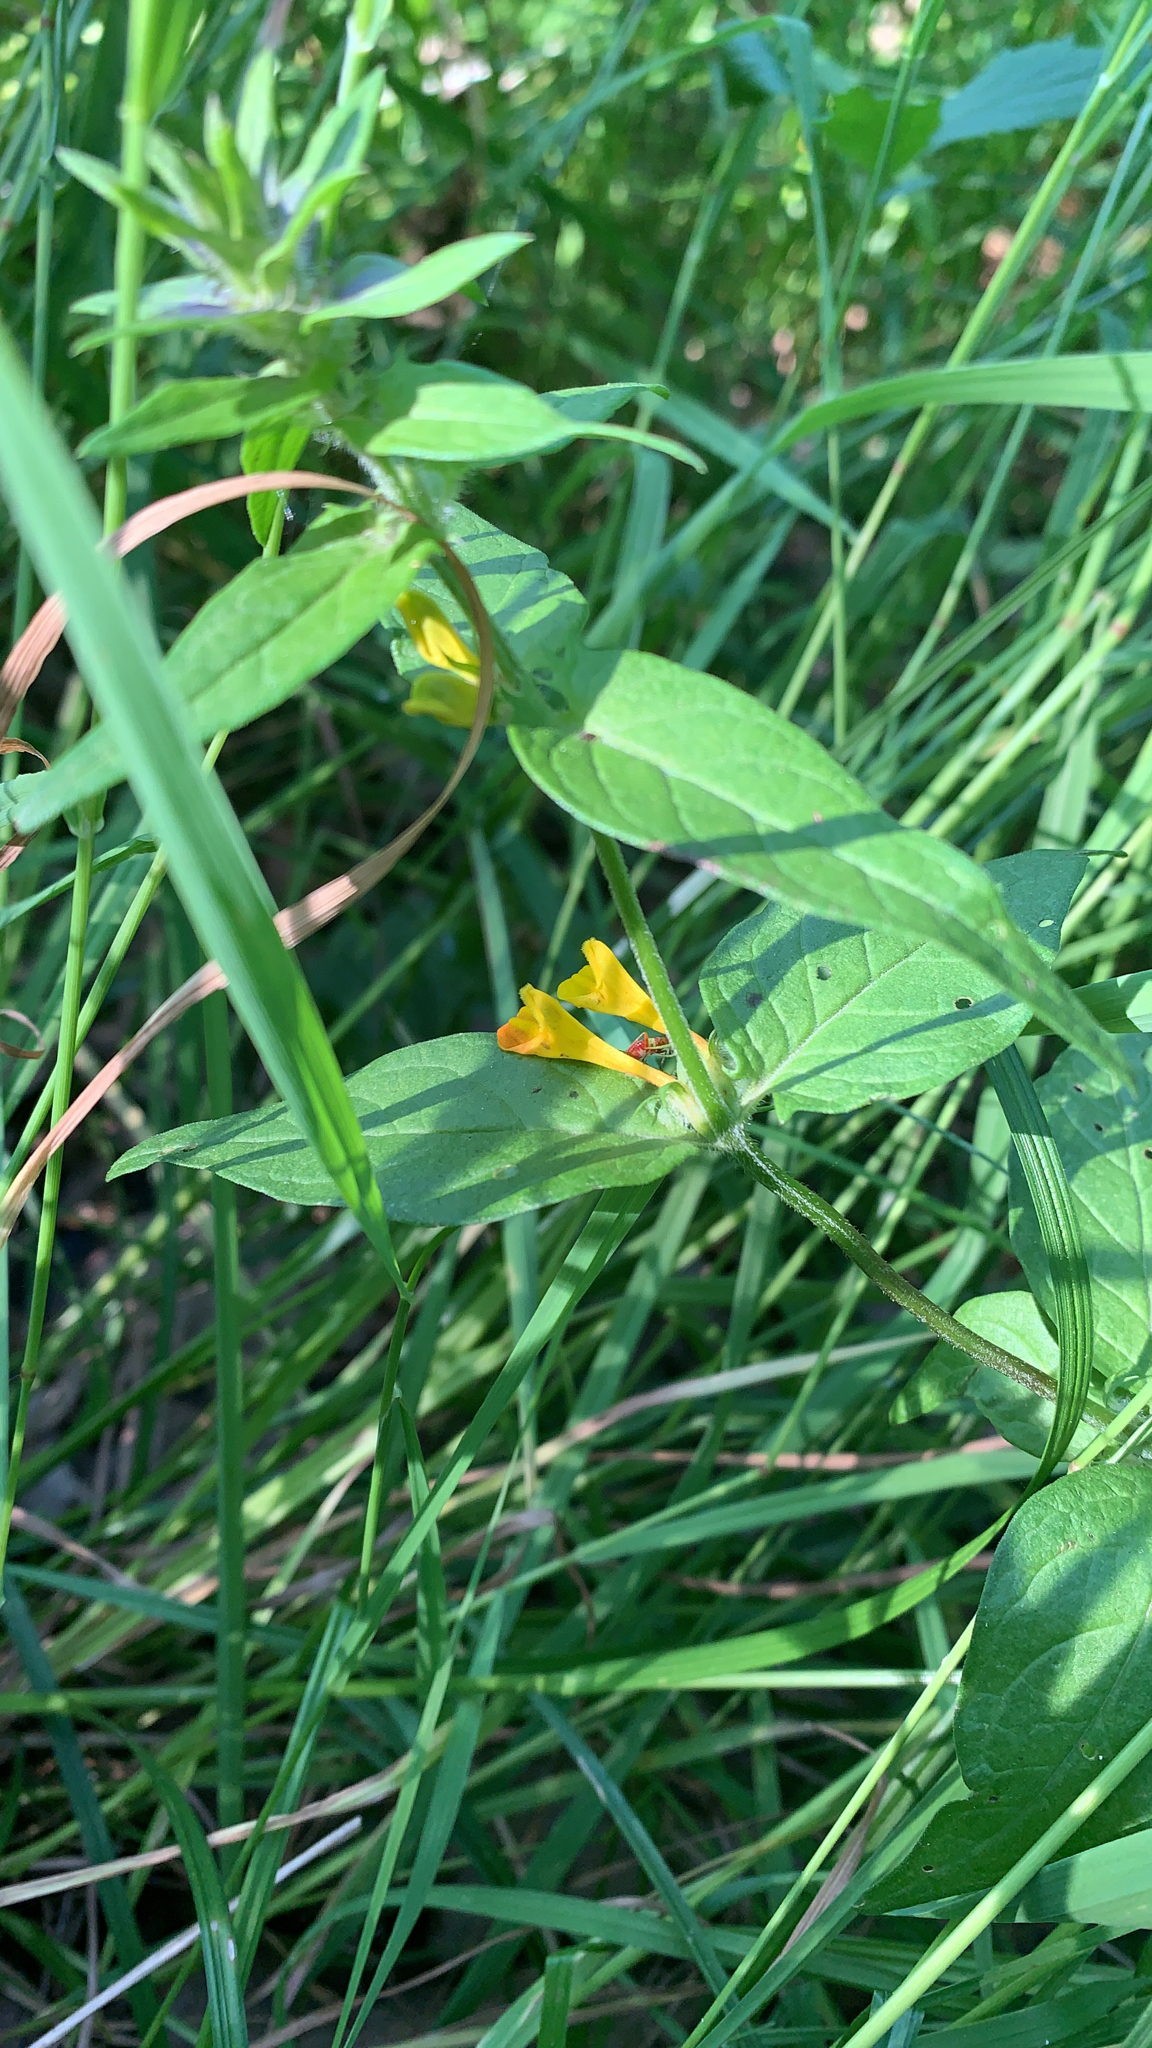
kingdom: Plantae
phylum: Tracheophyta
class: Magnoliopsida
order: Lamiales
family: Orobanchaceae
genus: Melampyrum
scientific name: Melampyrum nemorosum
